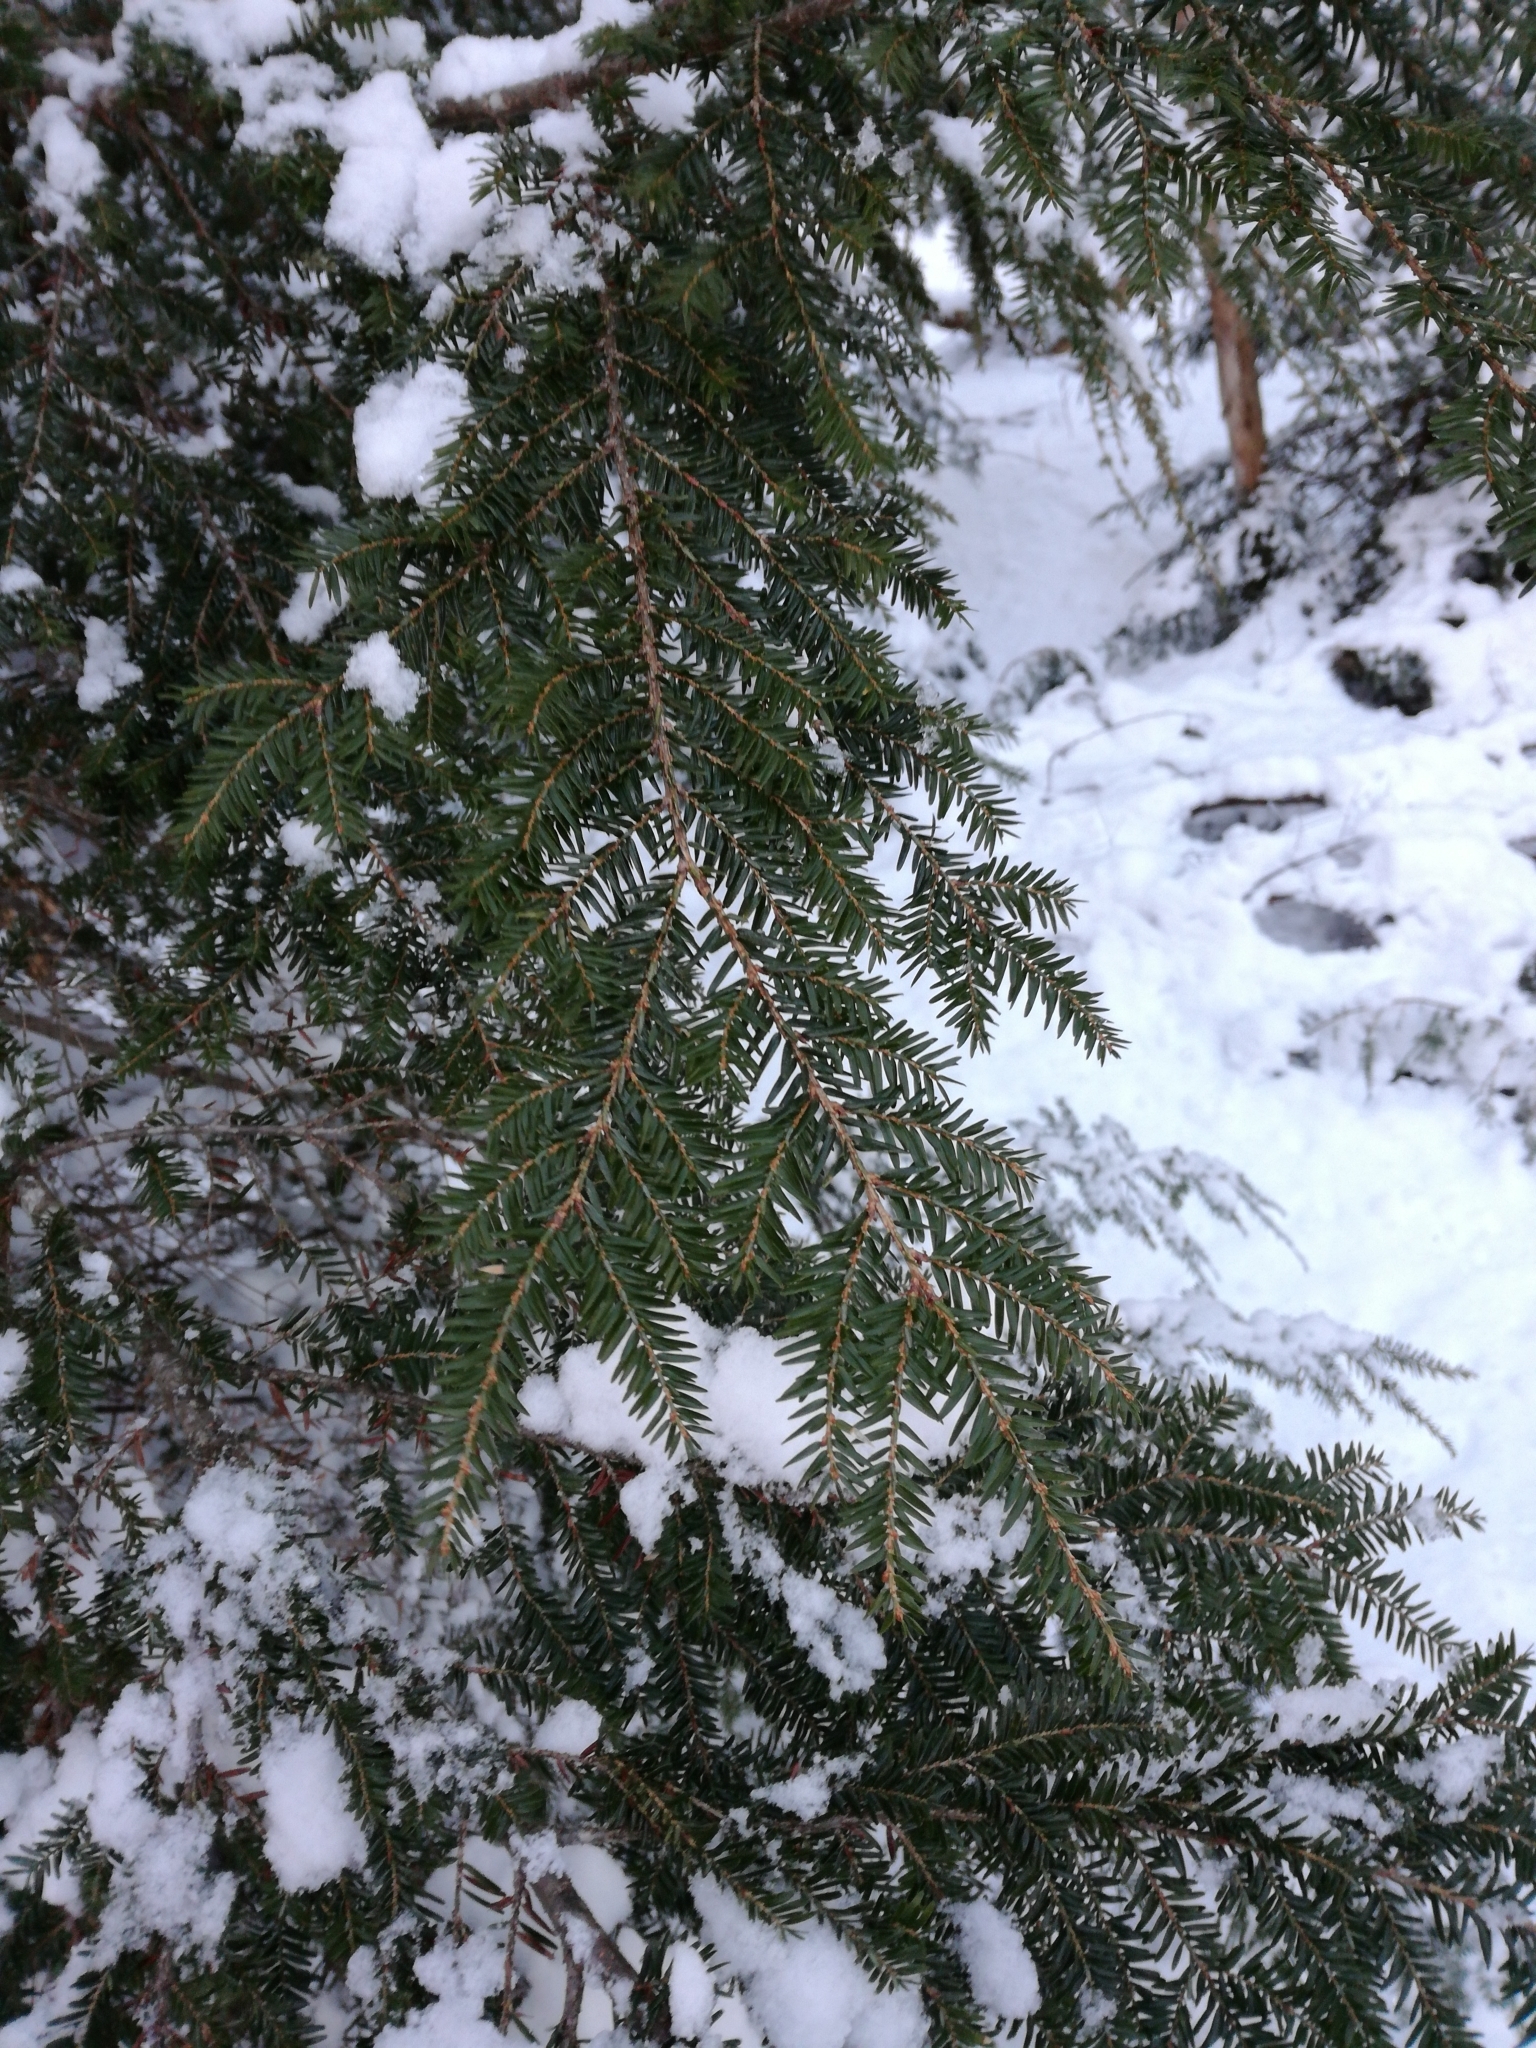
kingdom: Plantae
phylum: Tracheophyta
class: Pinopsida
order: Pinales
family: Pinaceae
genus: Tsuga
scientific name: Tsuga canadensis
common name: Eastern hemlock
